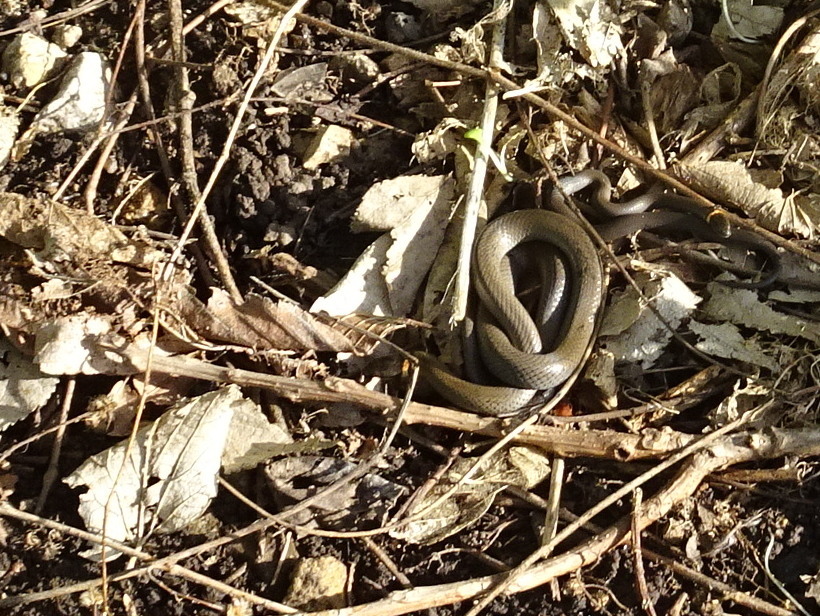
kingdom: Animalia
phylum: Chordata
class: Squamata
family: Colubridae
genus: Diadophis
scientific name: Diadophis punctatus
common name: Ringneck snake
